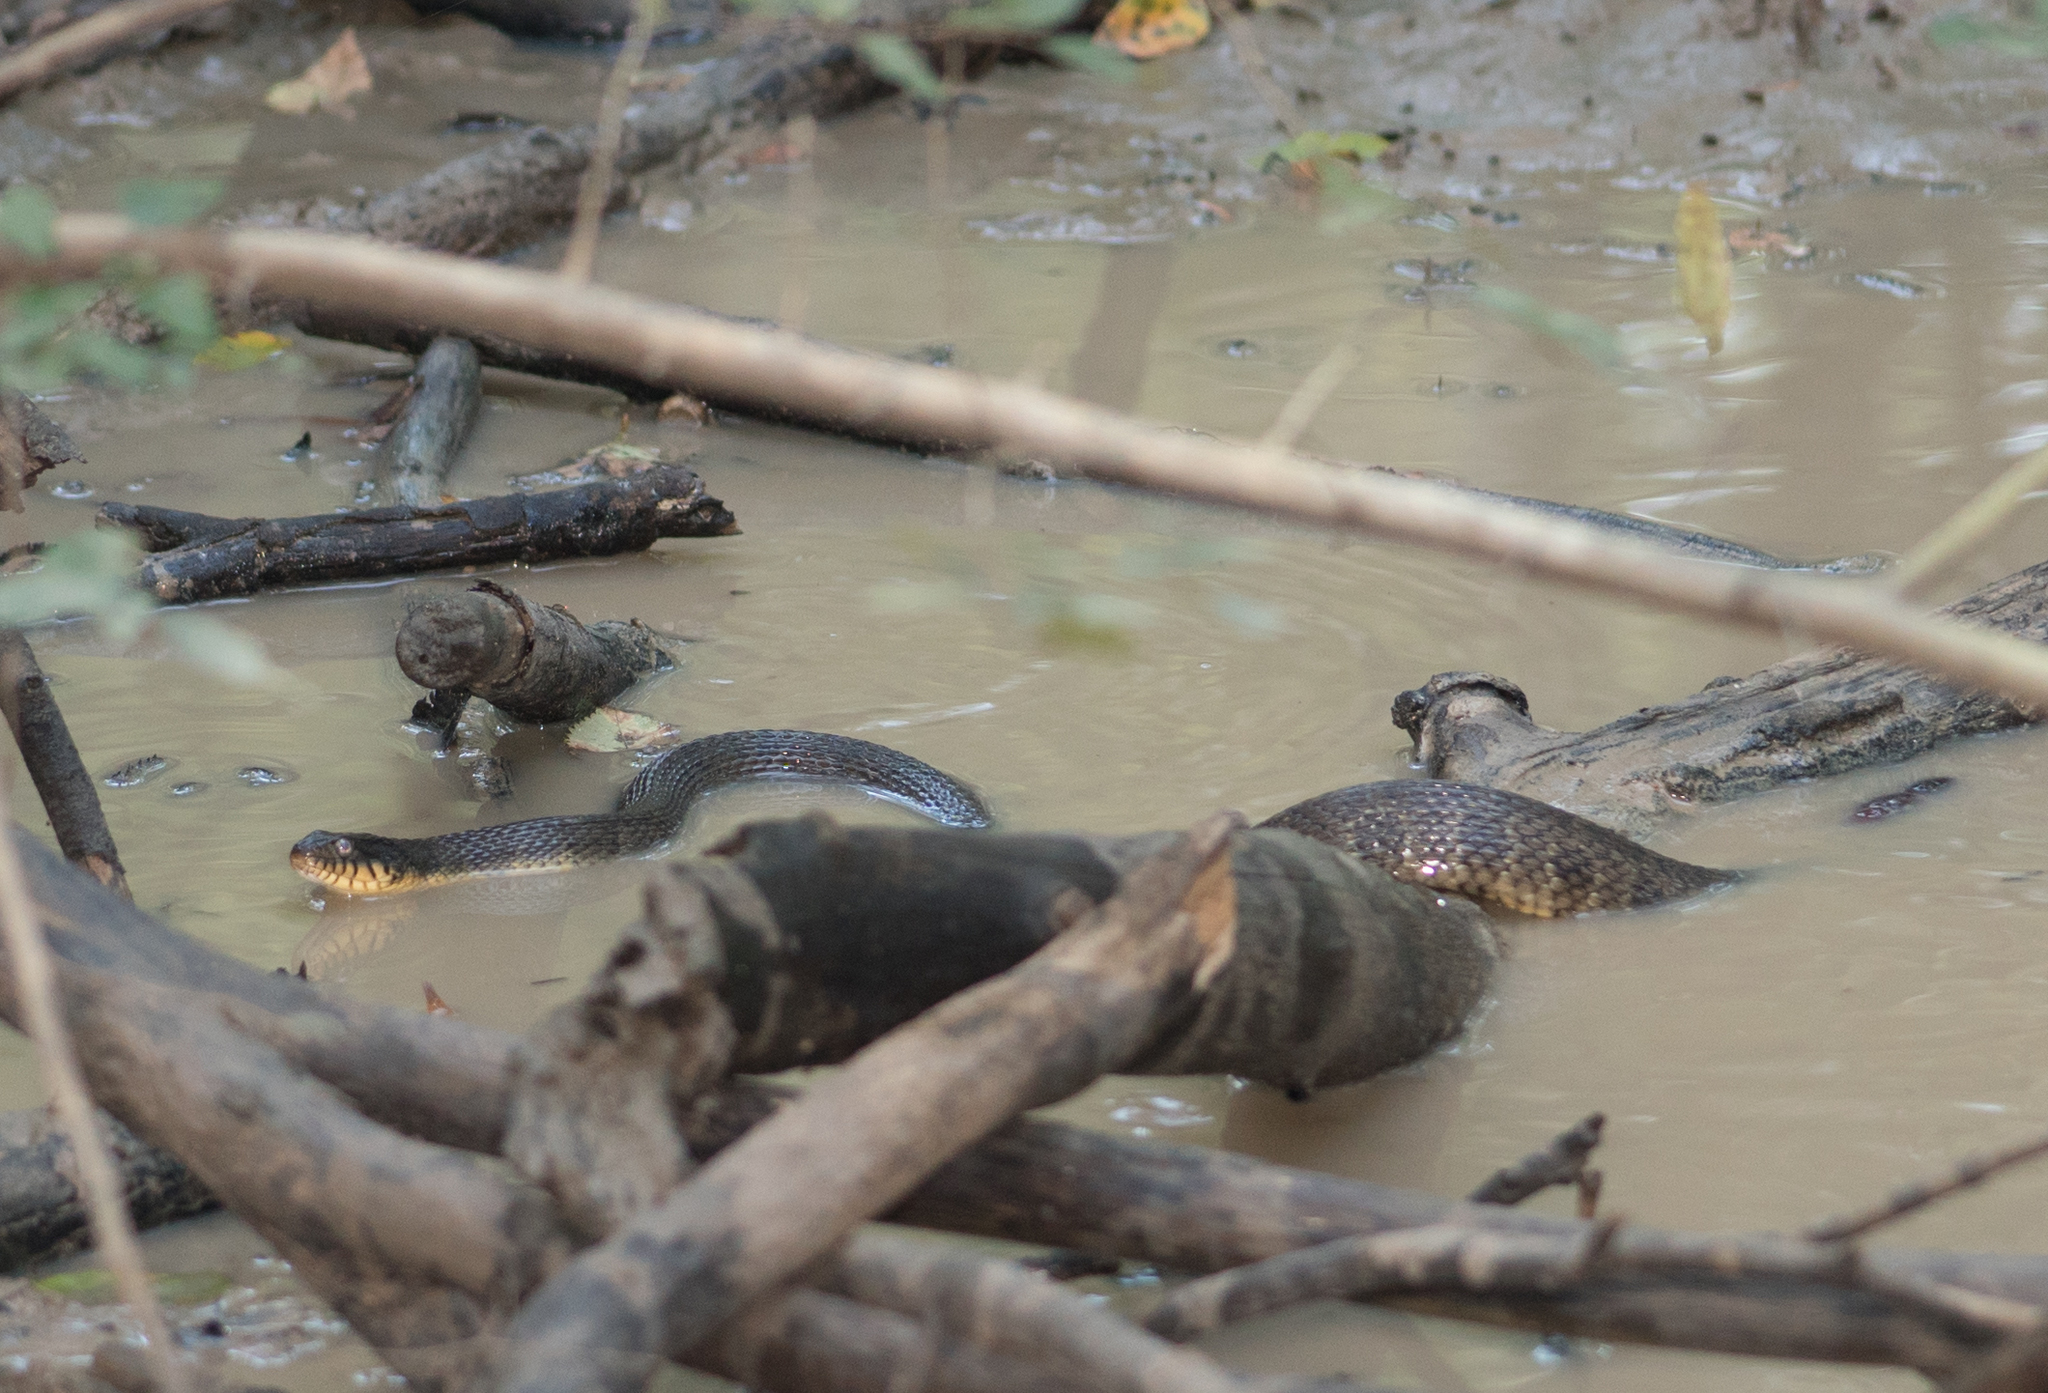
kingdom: Animalia
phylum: Chordata
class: Squamata
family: Colubridae
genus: Nerodia
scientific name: Nerodia erythrogaster
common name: Plainbelly water snake
